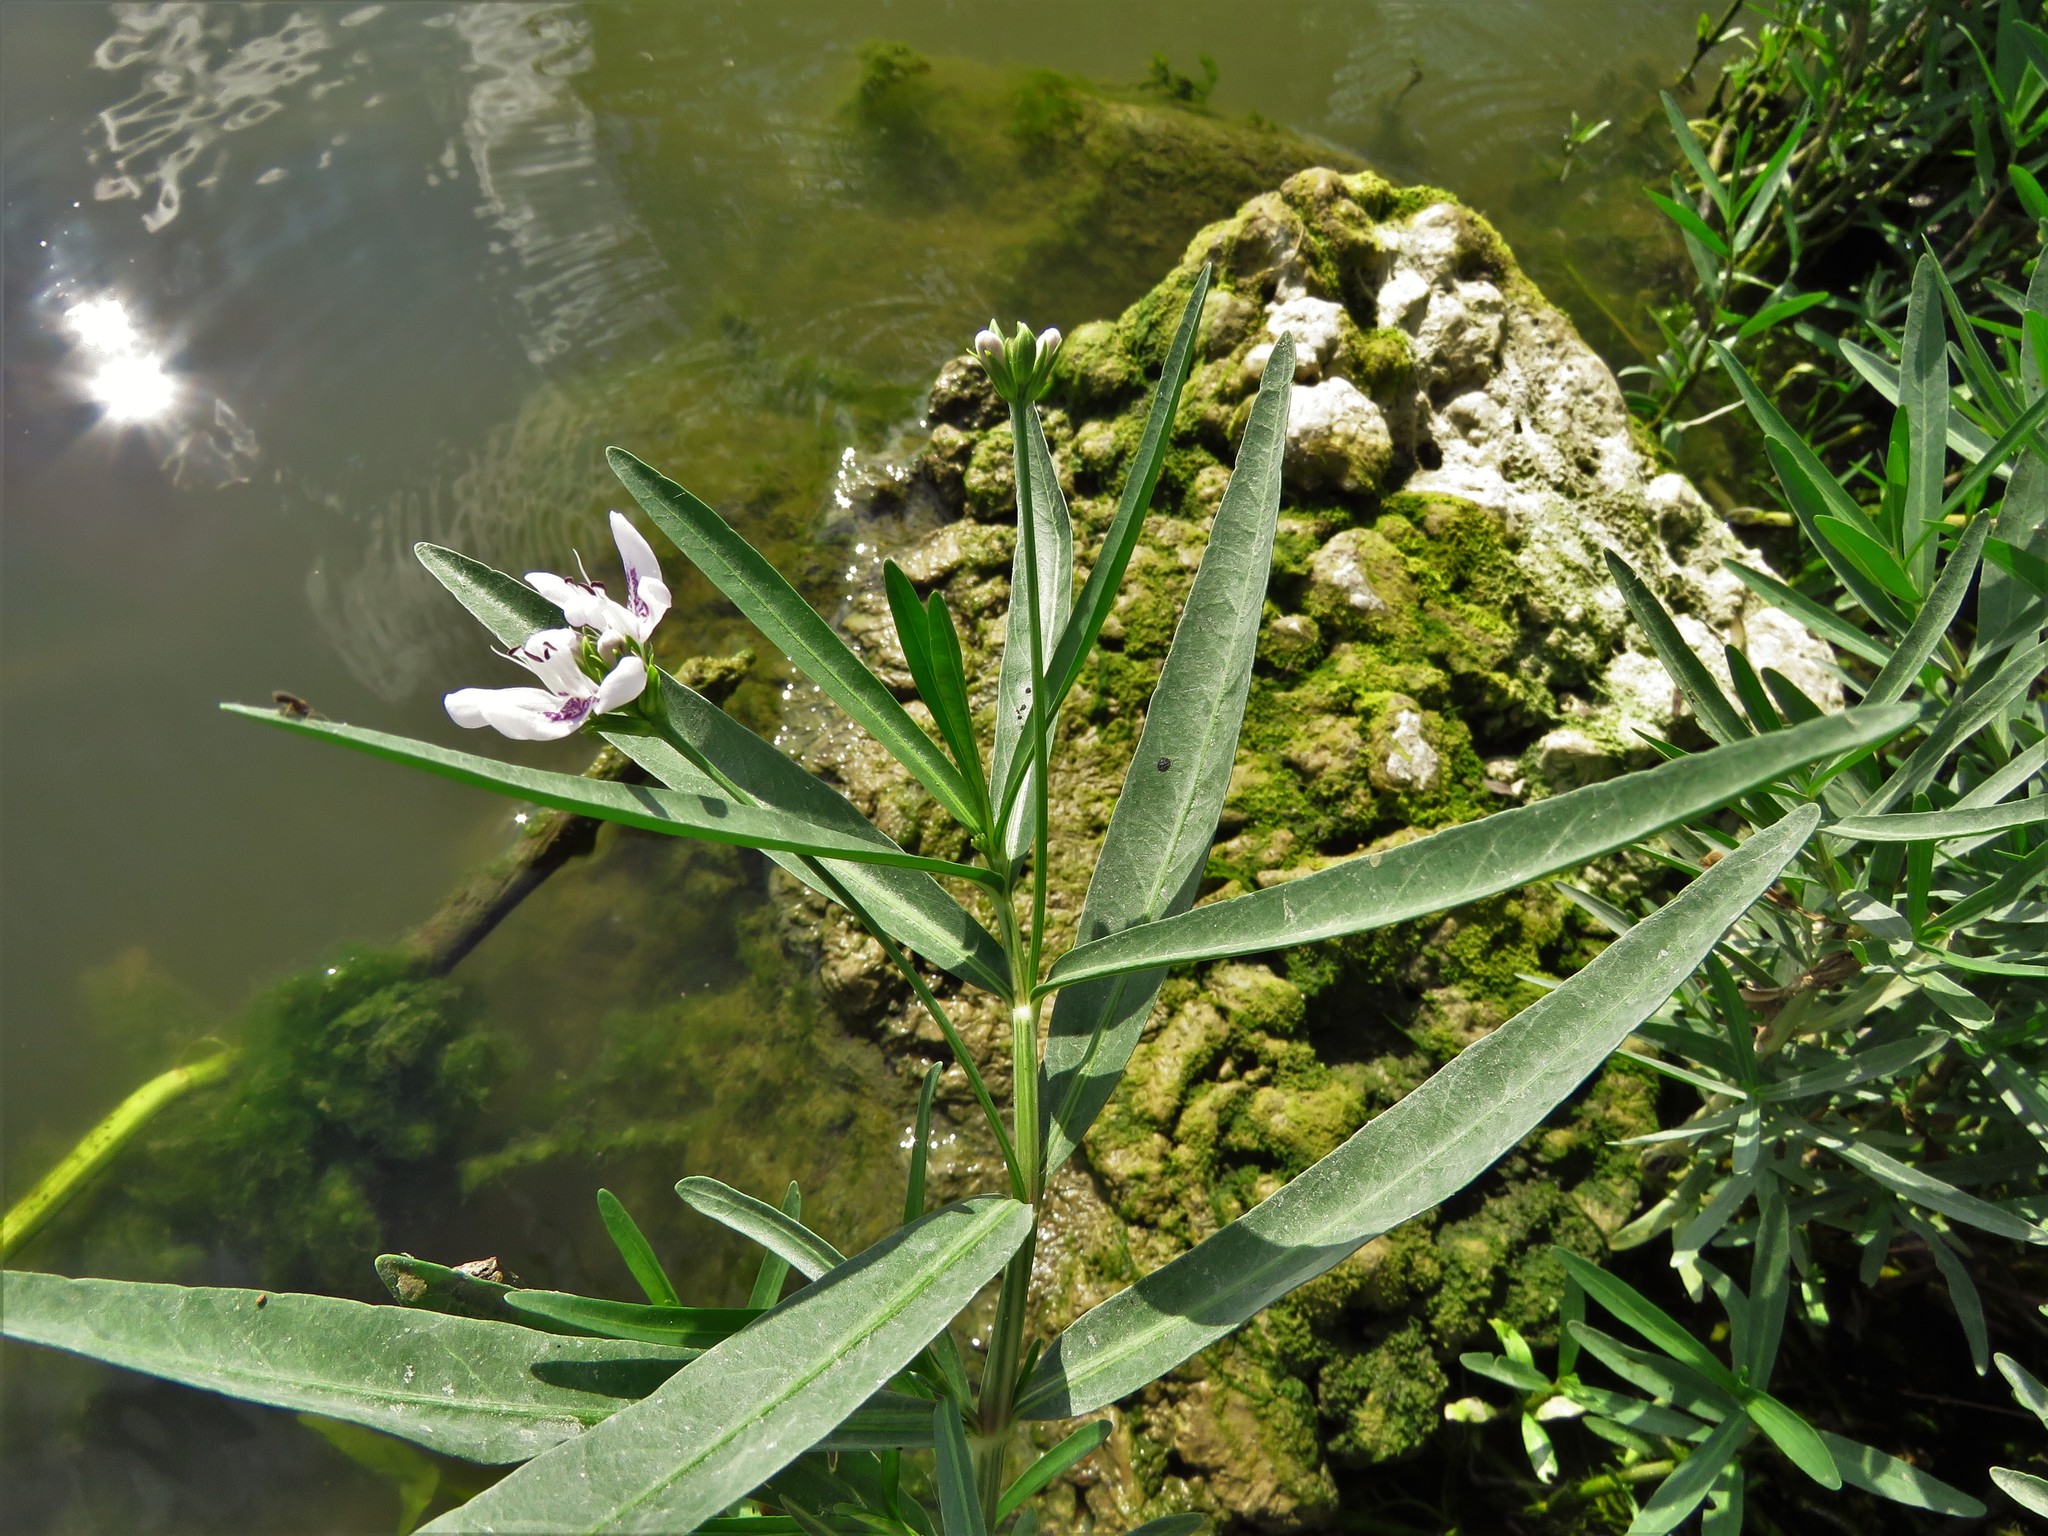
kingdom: Plantae
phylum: Tracheophyta
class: Magnoliopsida
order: Lamiales
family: Acanthaceae
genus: Dianthera
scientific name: Dianthera americana
